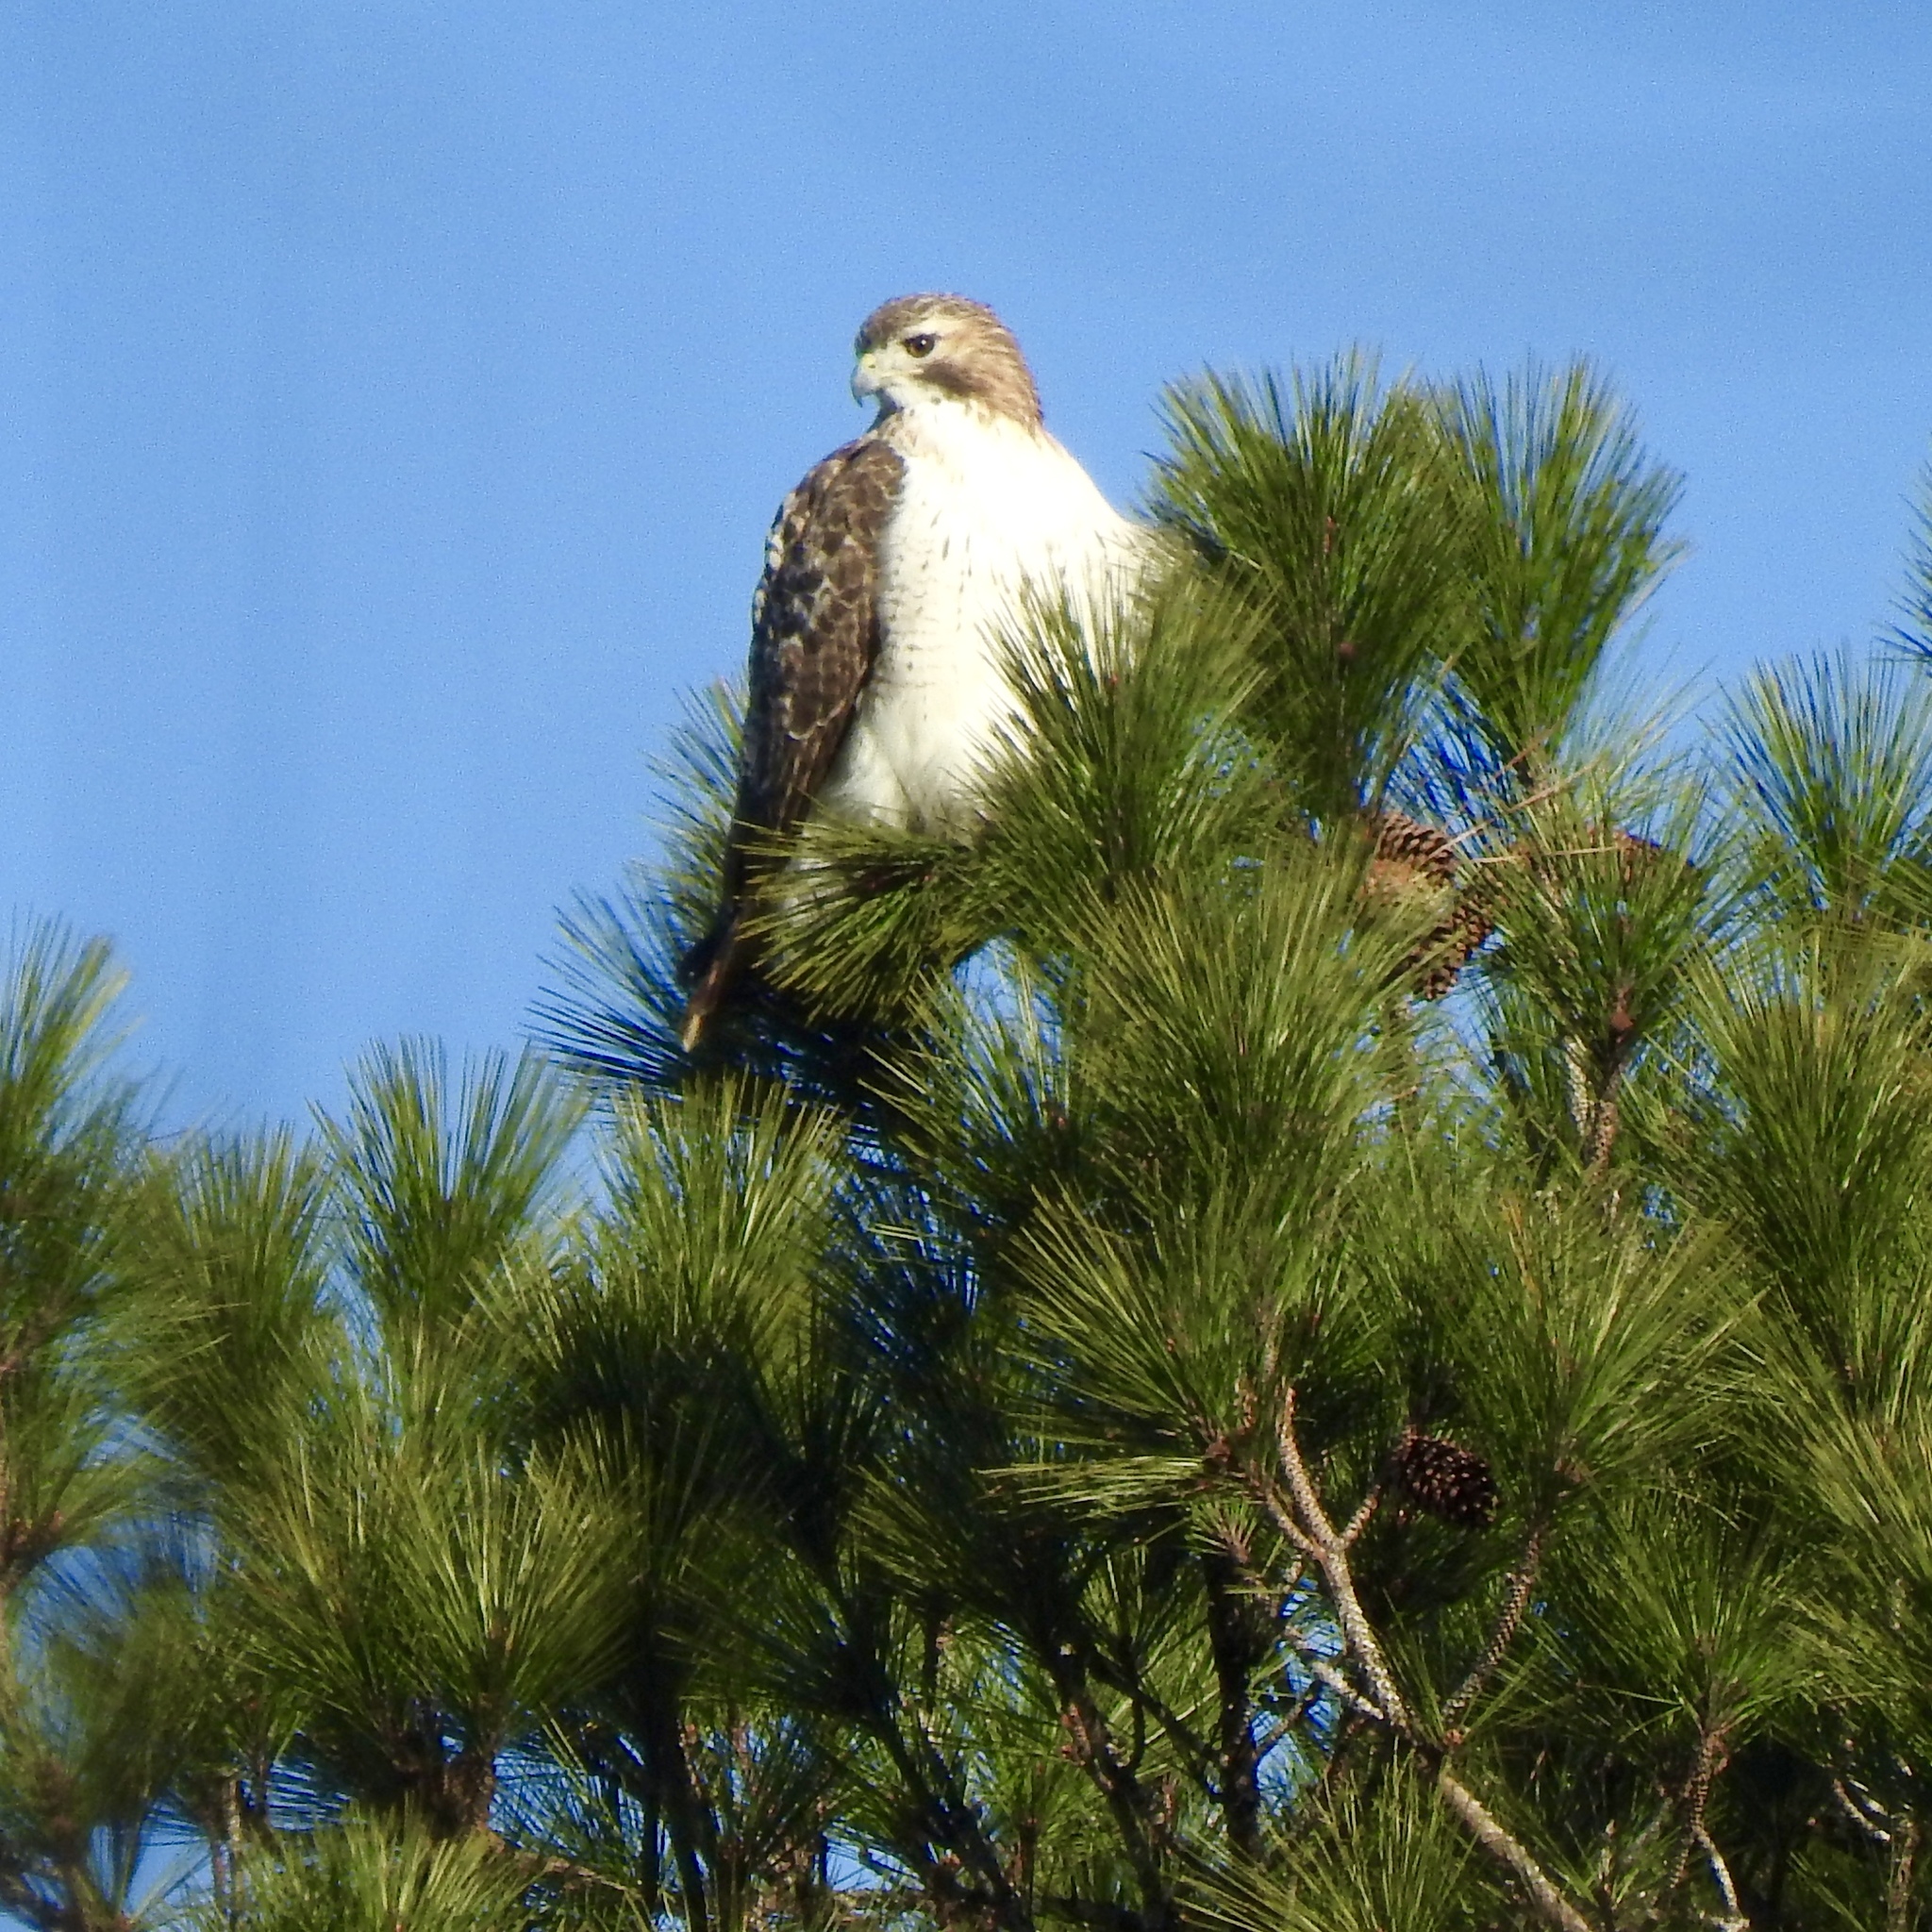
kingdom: Animalia
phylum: Chordata
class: Aves
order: Accipitriformes
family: Accipitridae
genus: Buteo
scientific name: Buteo jamaicensis
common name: Red-tailed hawk
